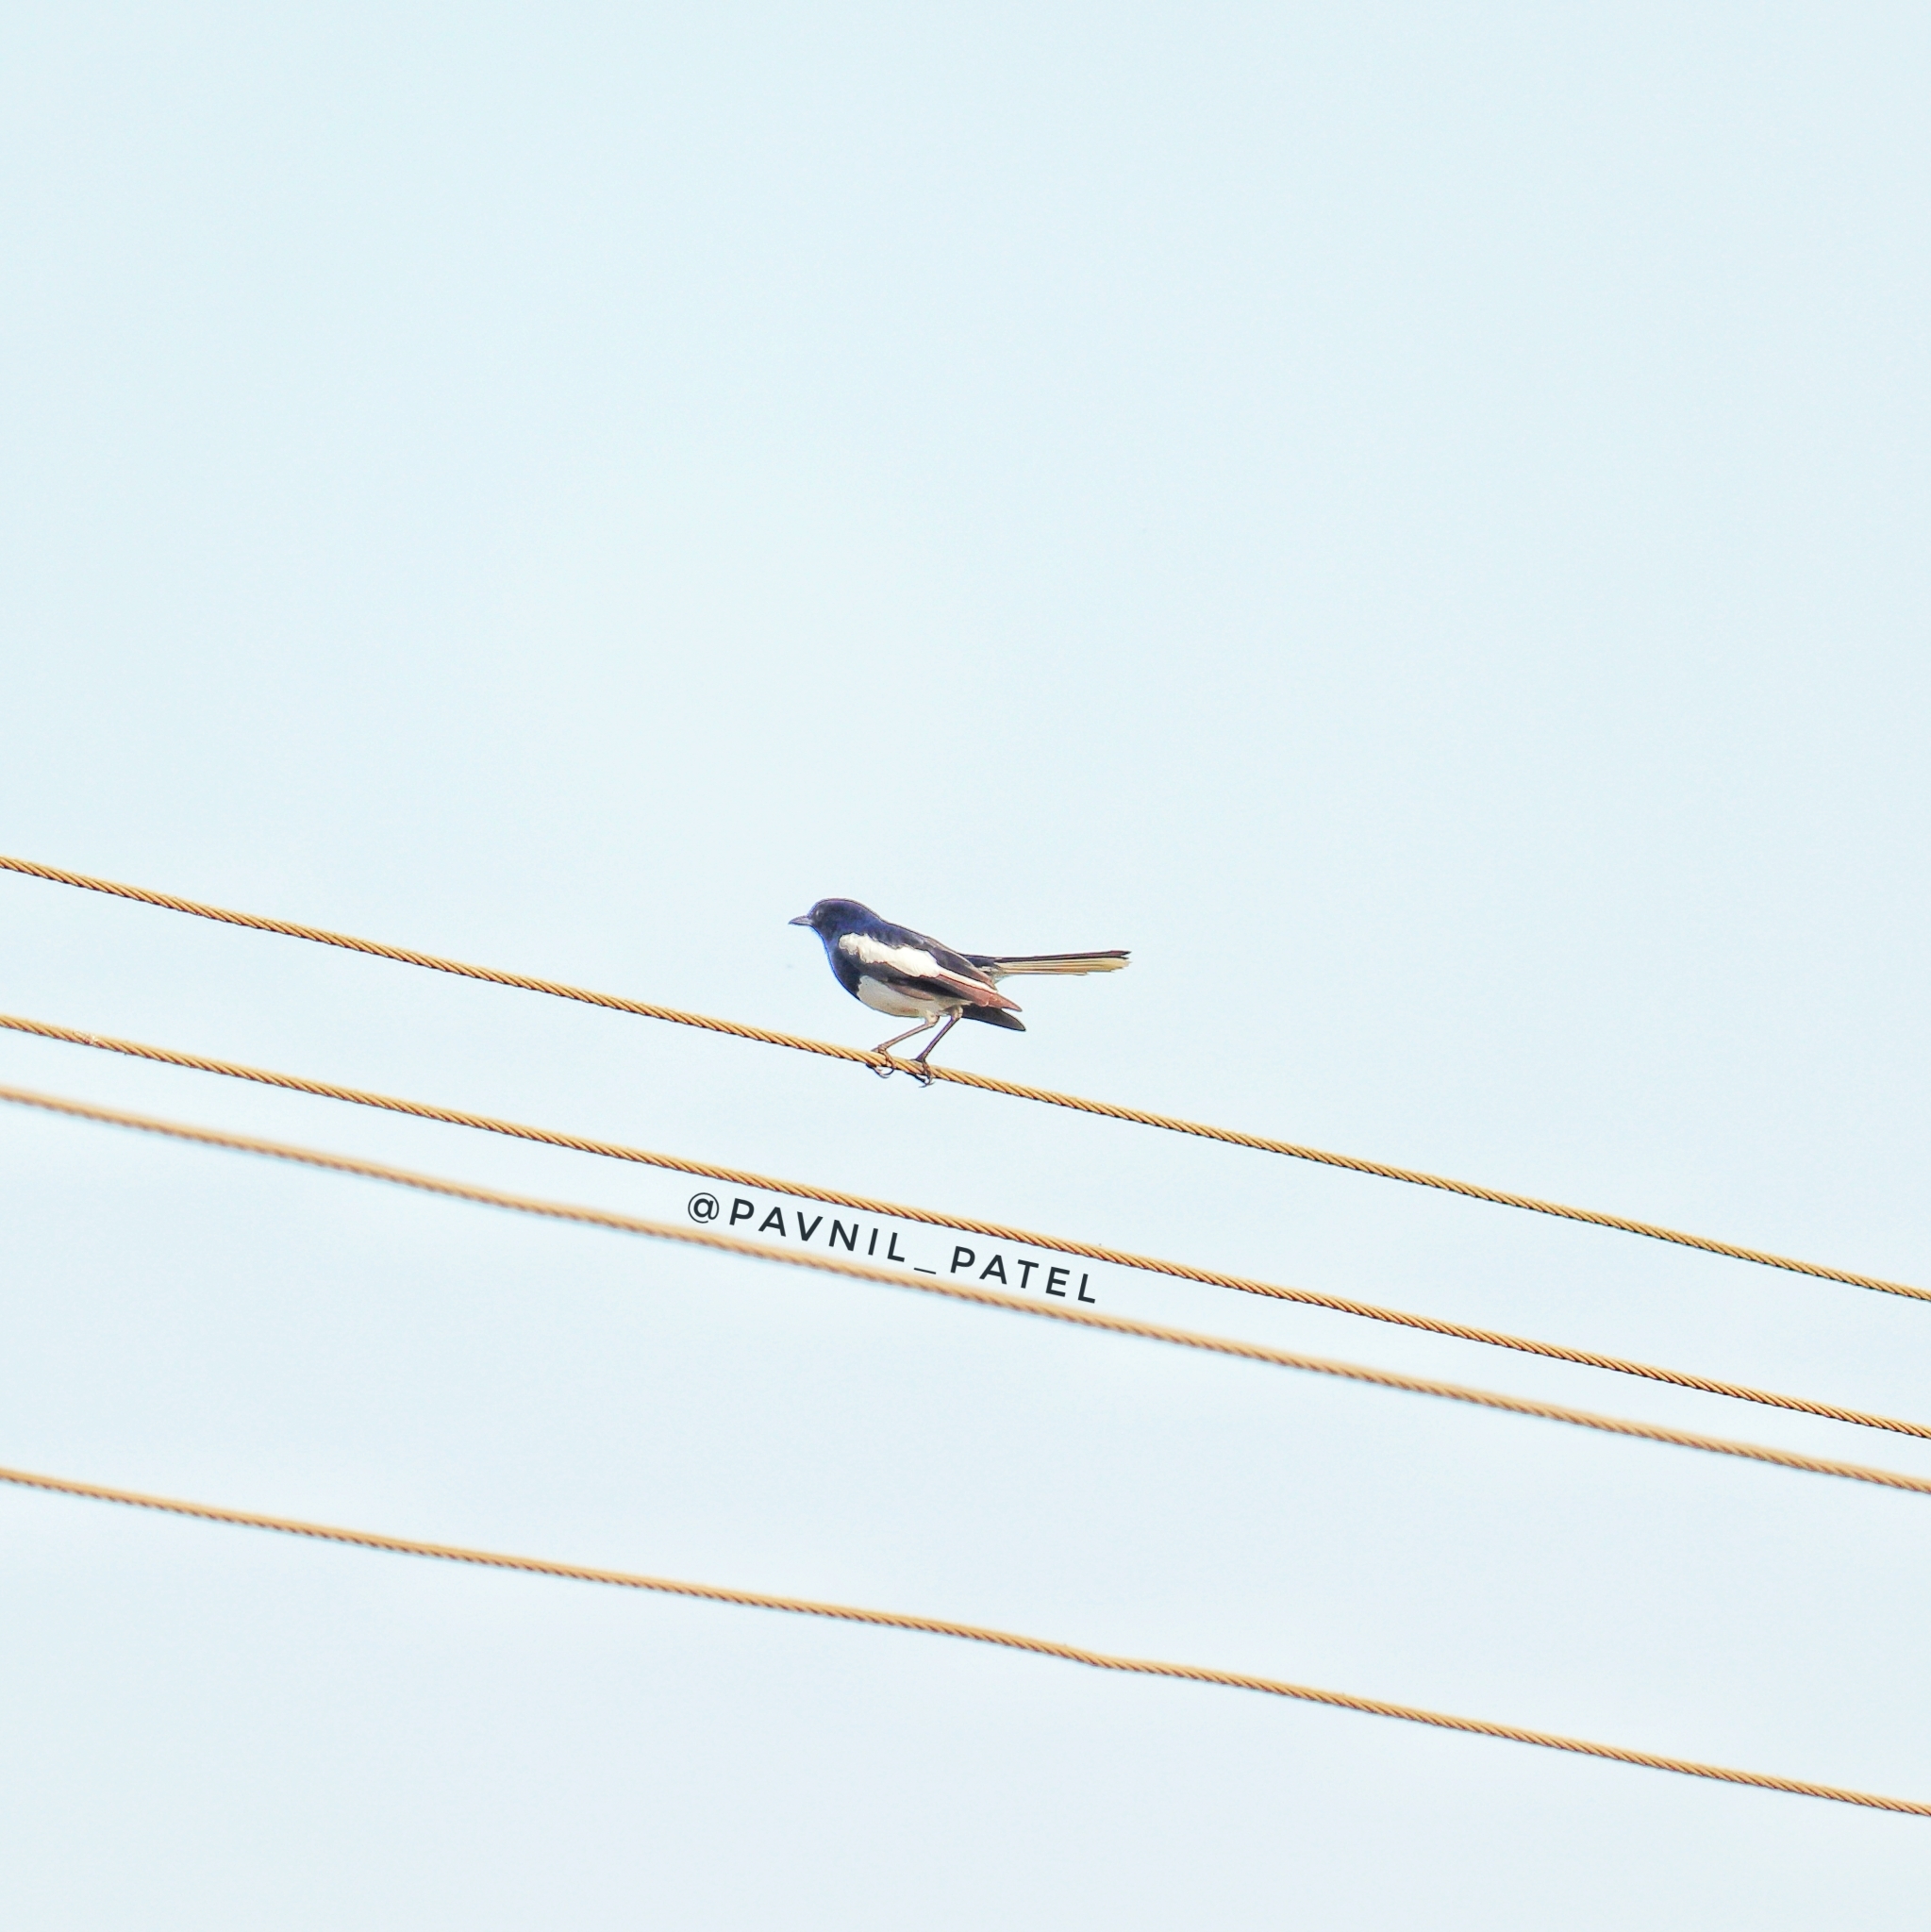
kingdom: Animalia
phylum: Chordata
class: Aves
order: Passeriformes
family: Muscicapidae
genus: Copsychus
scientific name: Copsychus saularis
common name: Oriental magpie-robin
